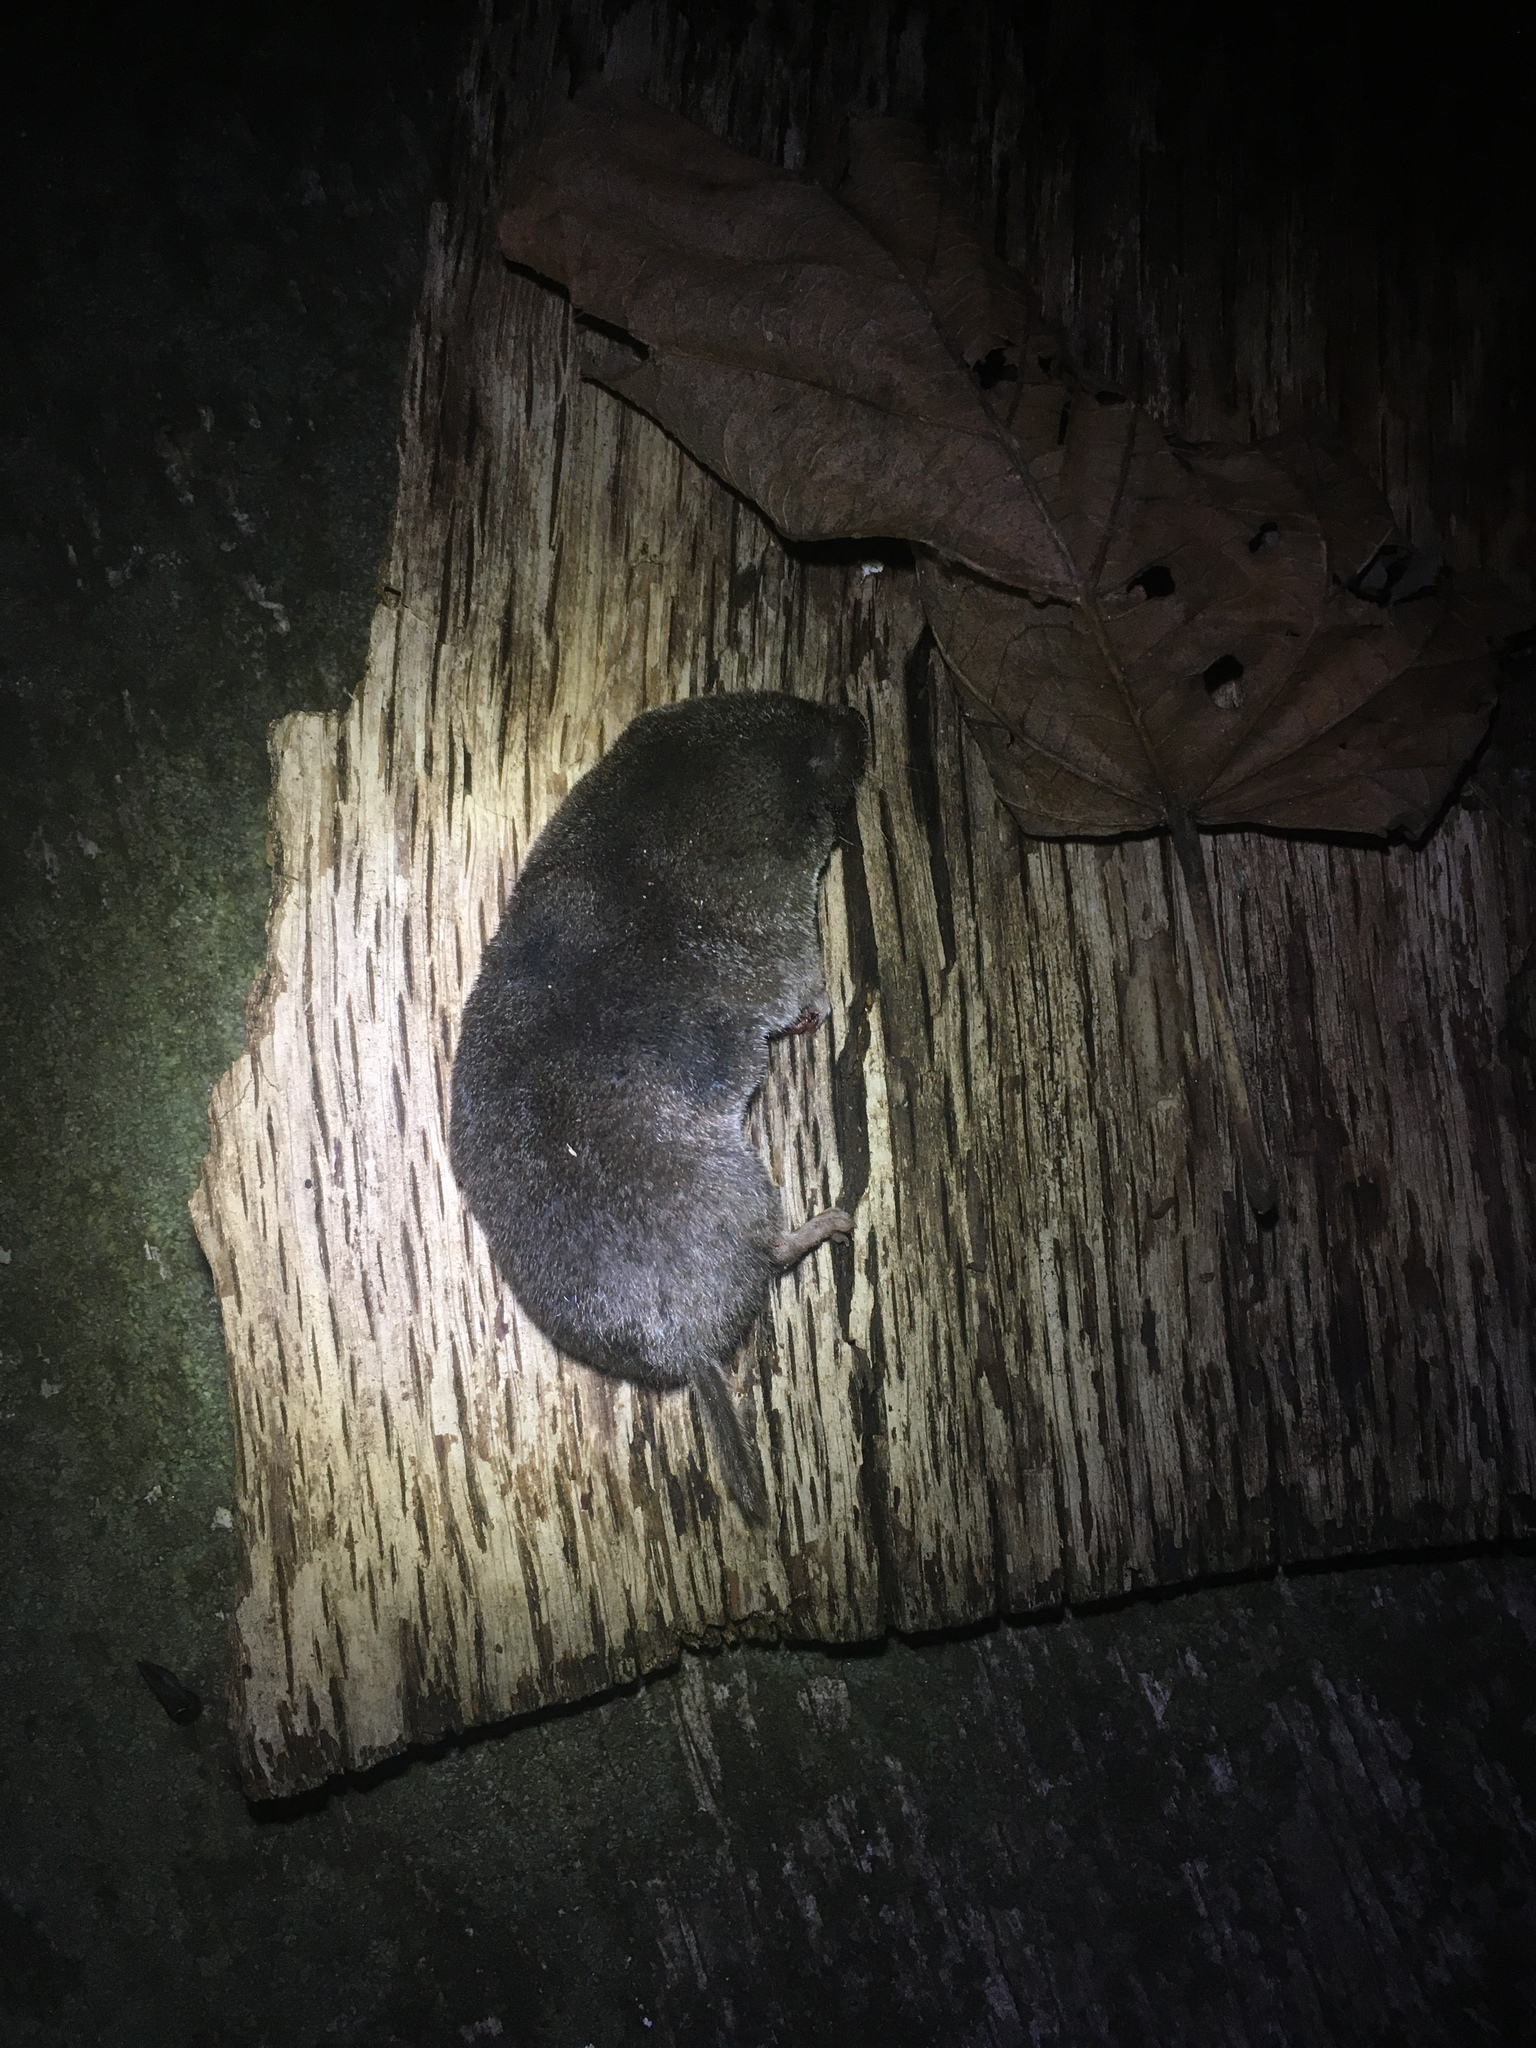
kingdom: Animalia
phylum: Chordata
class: Mammalia
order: Soricomorpha
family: Soricidae
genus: Blarina
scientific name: Blarina brevicauda
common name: Northern short-tailed shrew
